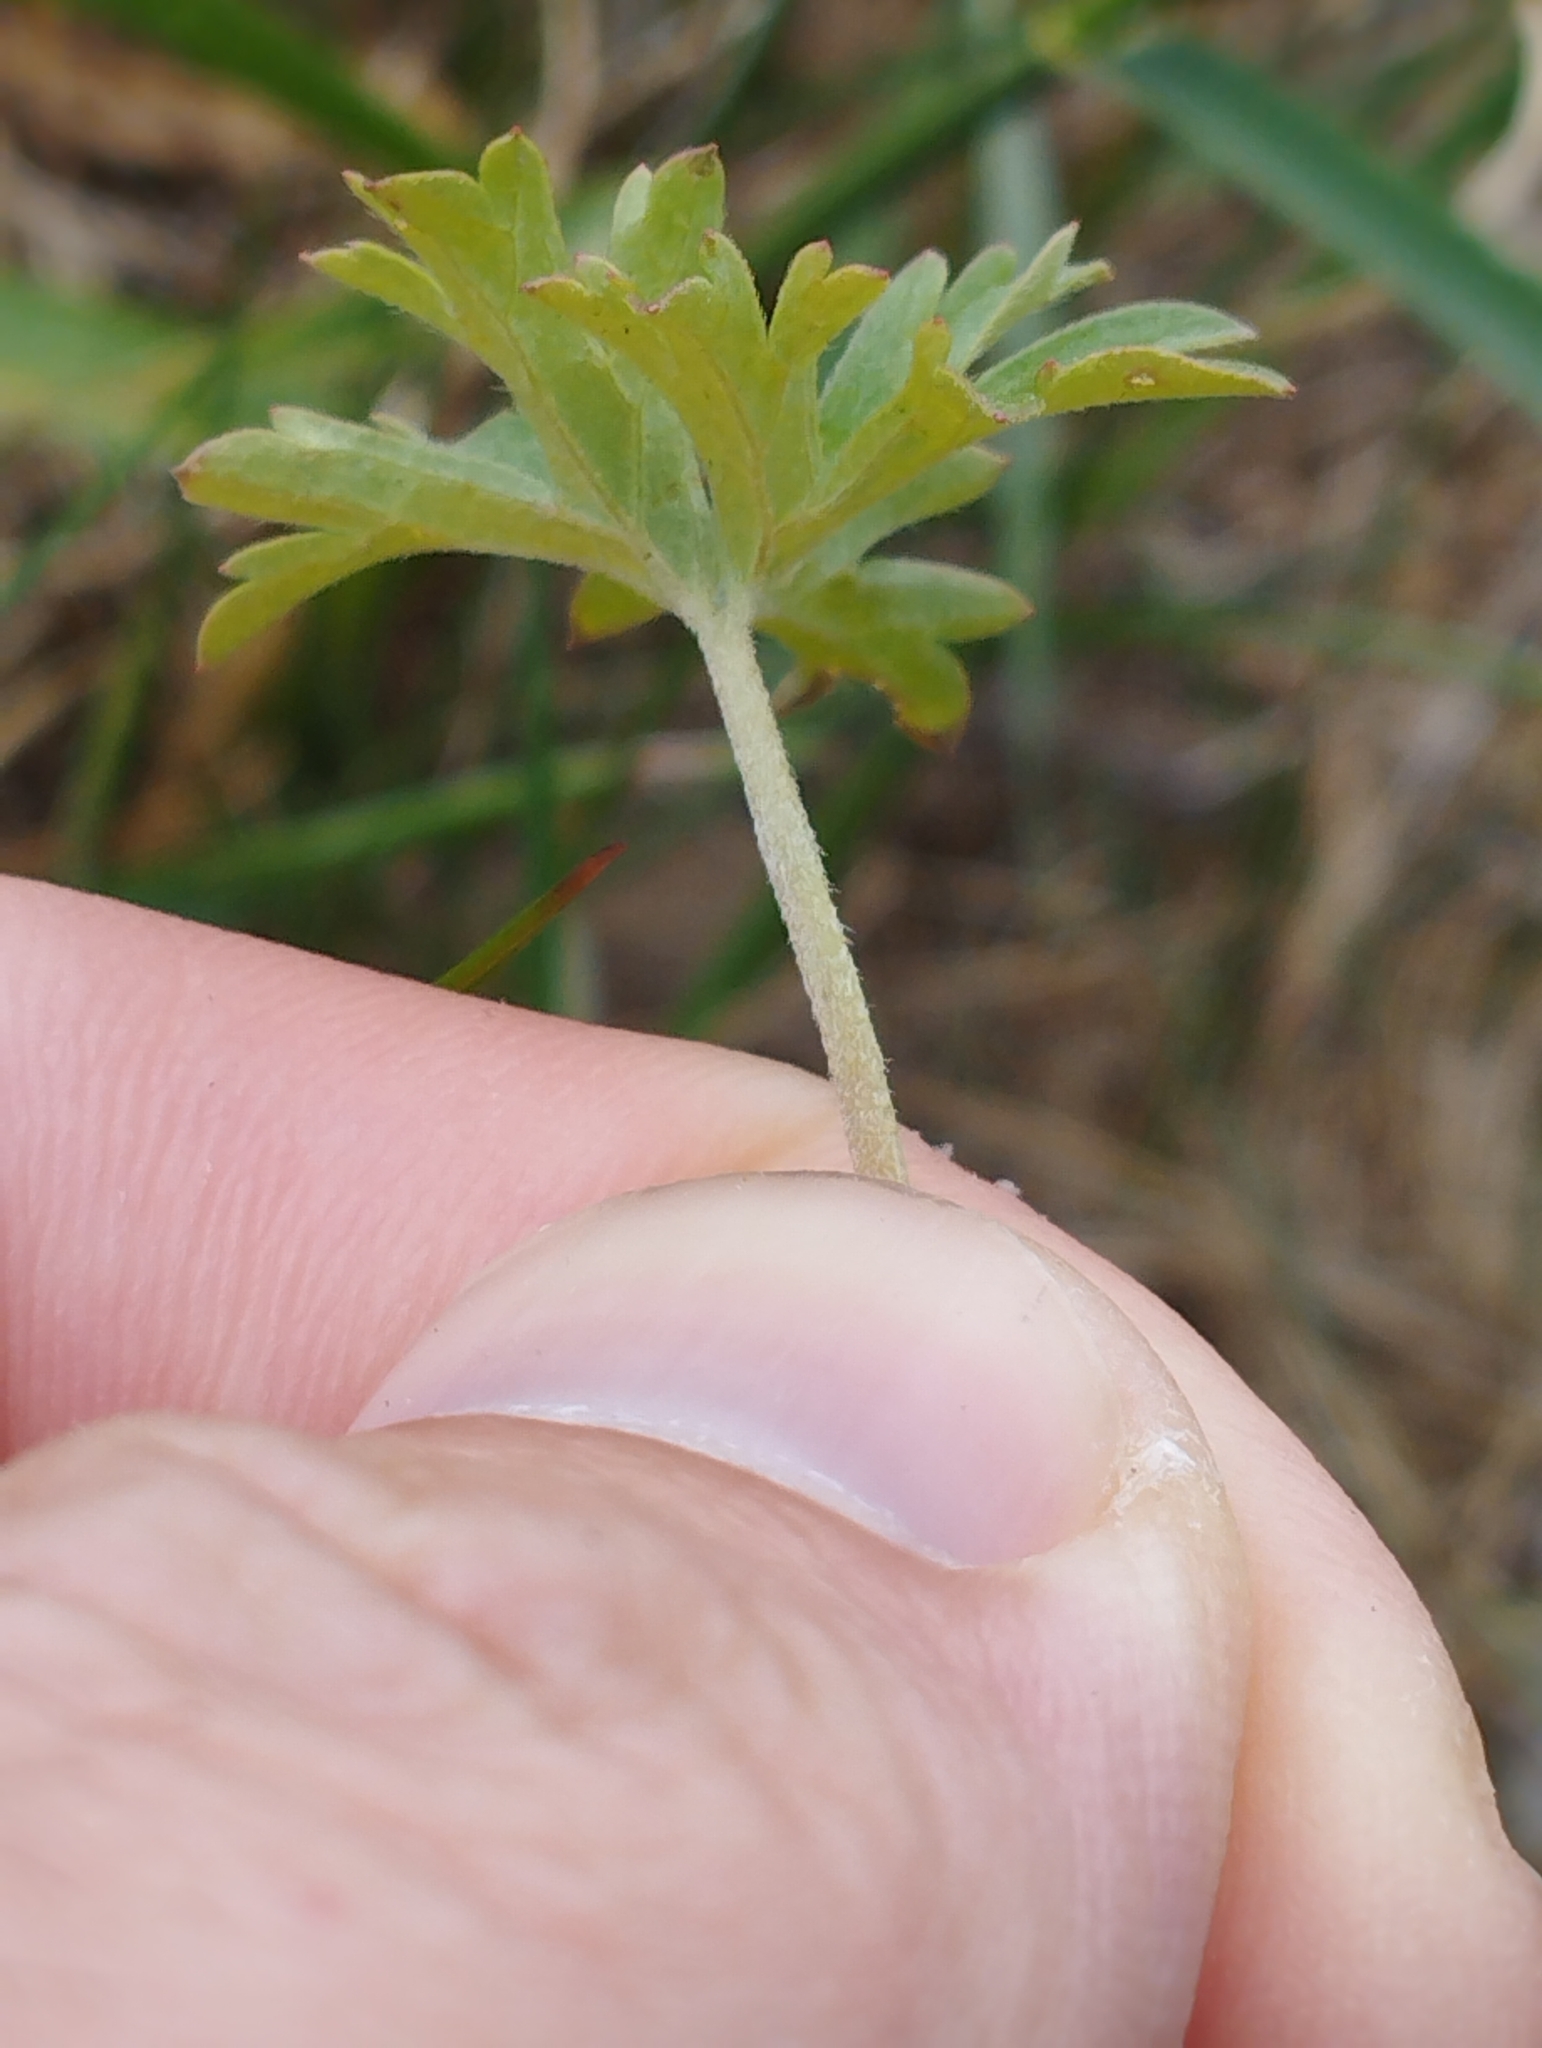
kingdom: Plantae
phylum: Tracheophyta
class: Magnoliopsida
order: Geraniales
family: Geraniaceae
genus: Geranium
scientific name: Geranium retrorsum
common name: New zealand geranium
